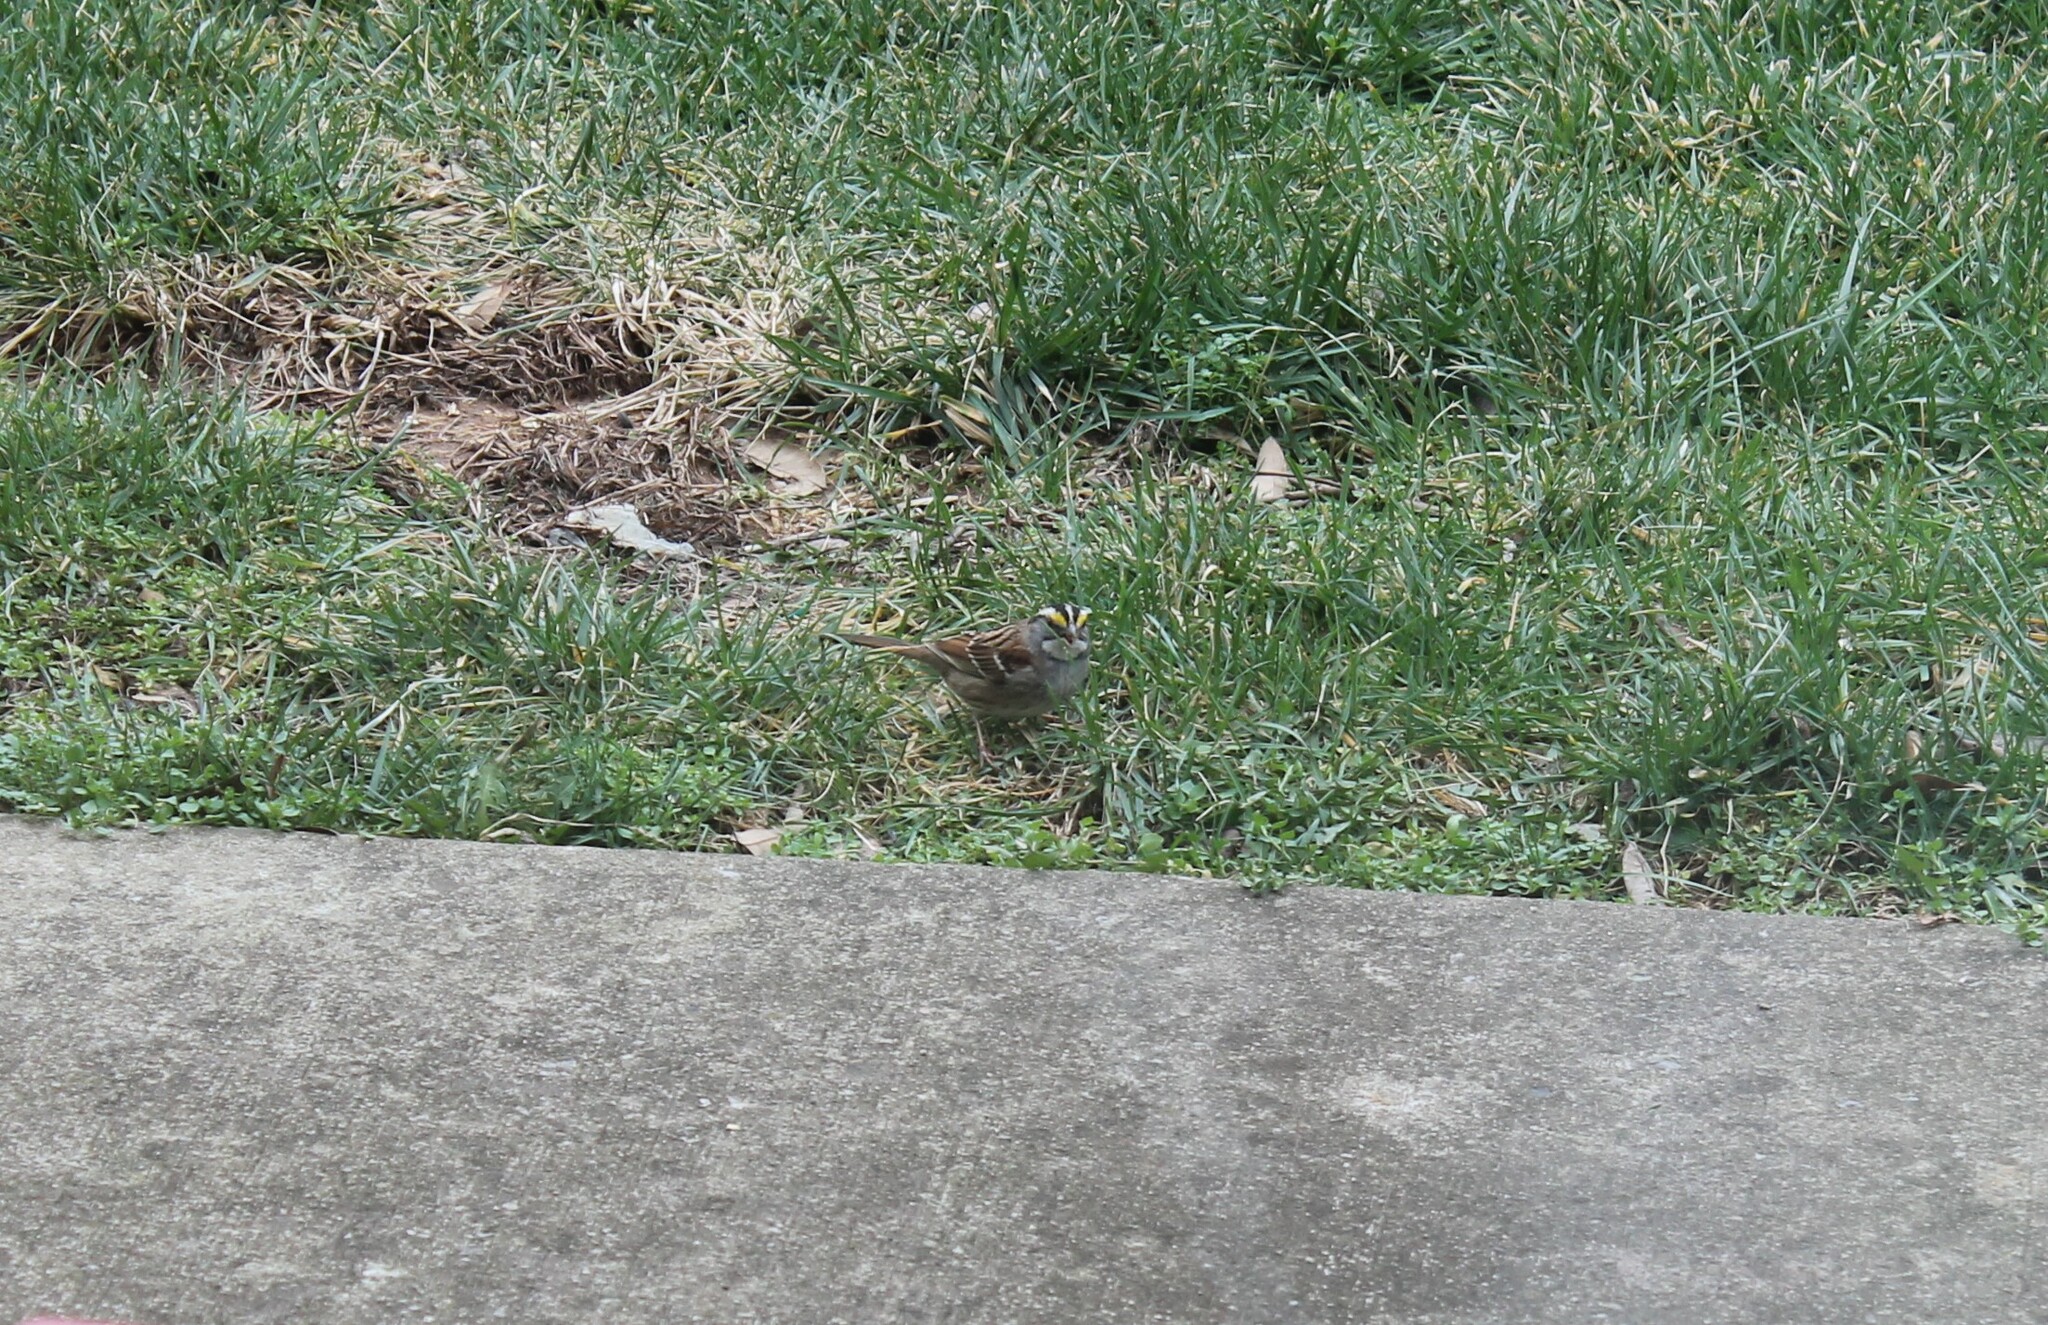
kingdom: Animalia
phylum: Chordata
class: Aves
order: Passeriformes
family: Passerellidae
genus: Zonotrichia
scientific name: Zonotrichia albicollis
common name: White-throated sparrow
